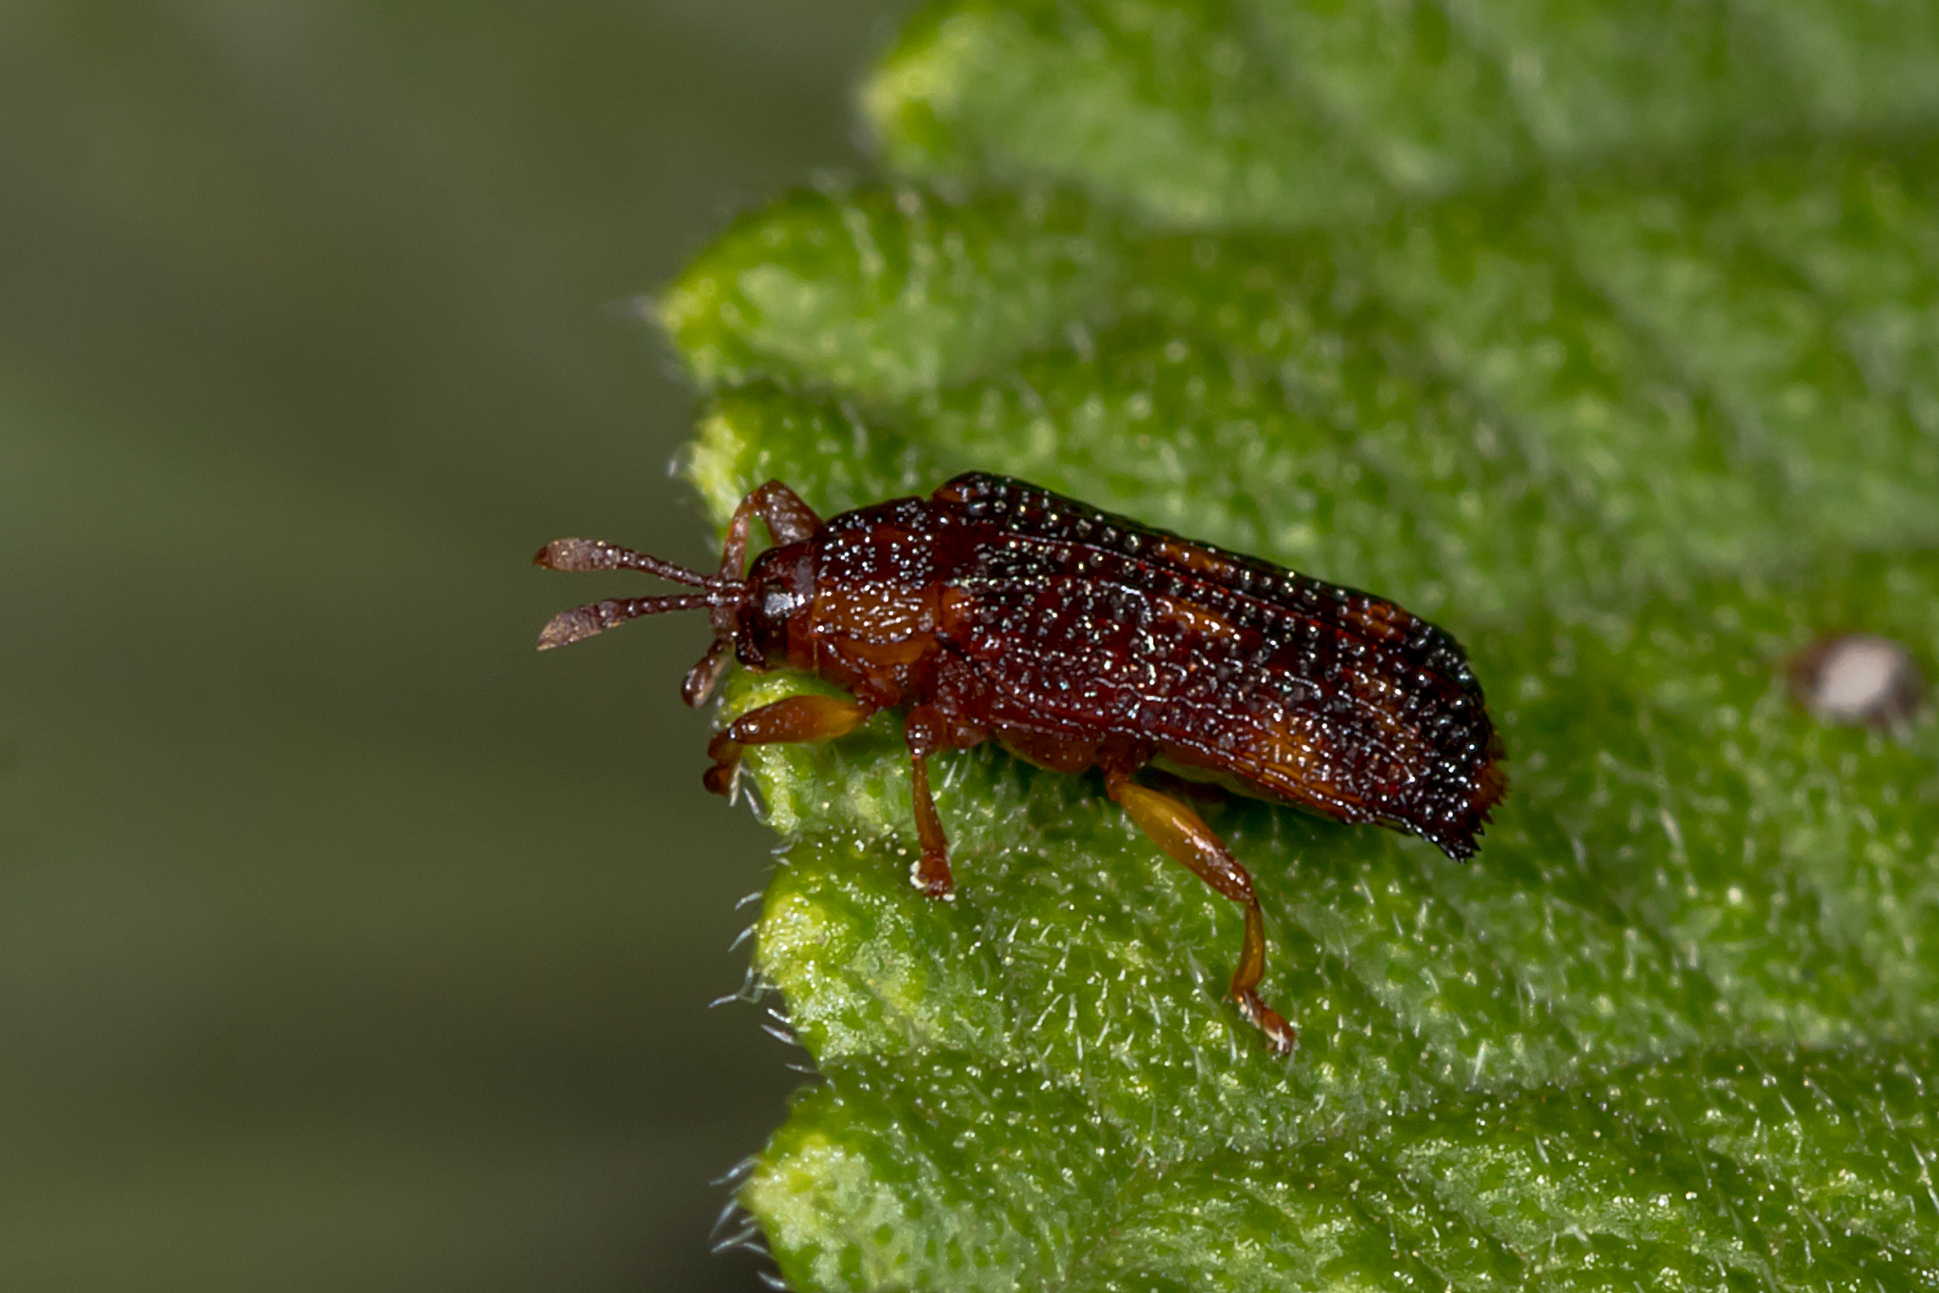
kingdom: Animalia
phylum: Arthropoda
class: Insecta
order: Coleoptera
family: Chrysomelidae
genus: Uroplata
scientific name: Uroplata girardi
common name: Lantana leafminer
